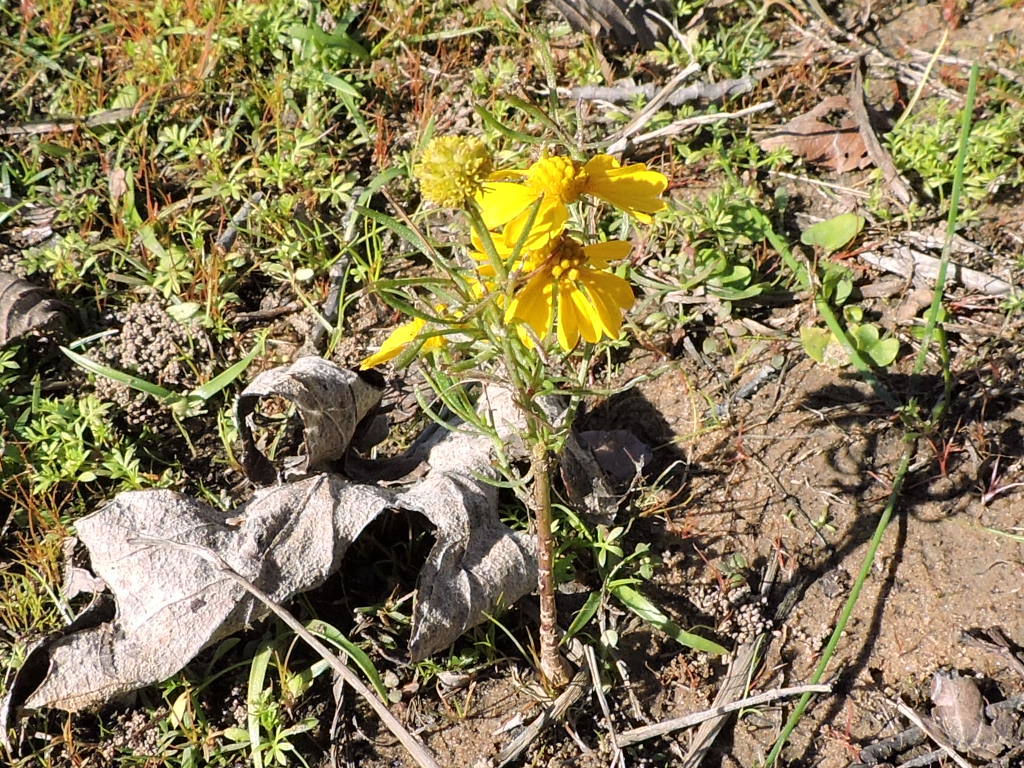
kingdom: Plantae
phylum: Tracheophyta
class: Magnoliopsida
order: Asterales
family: Asteraceae
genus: Helenium
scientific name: Helenium amarum
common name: Bitter sneezeweed
